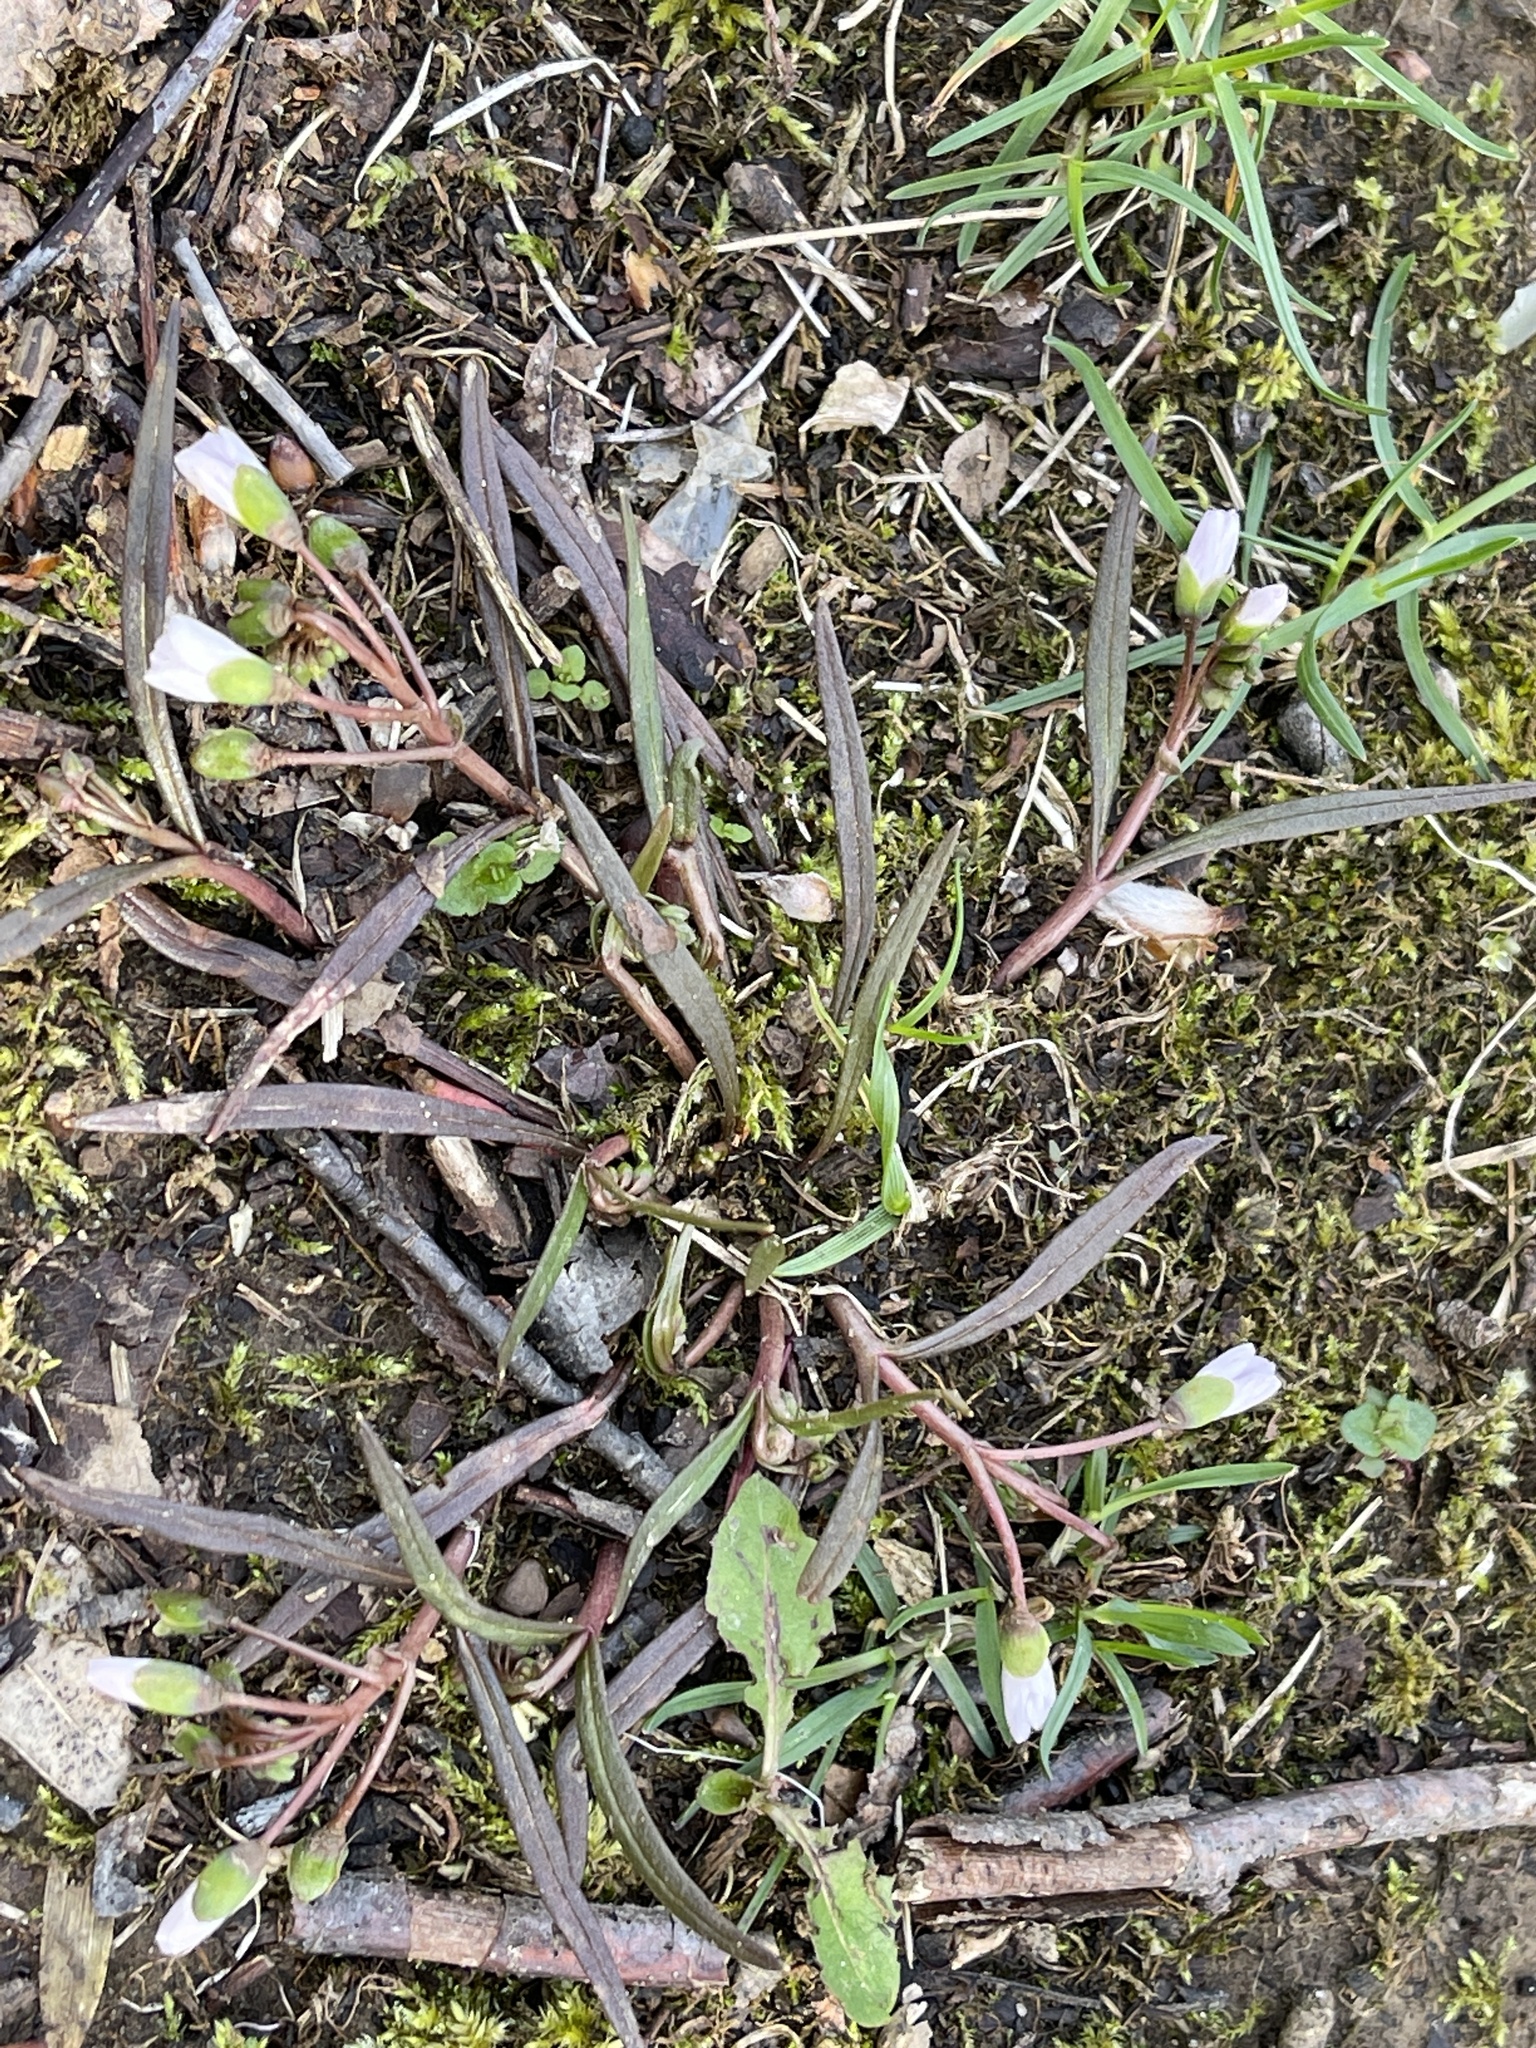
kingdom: Plantae
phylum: Tracheophyta
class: Magnoliopsida
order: Caryophyllales
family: Montiaceae
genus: Claytonia
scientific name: Claytonia virginica
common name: Virginia springbeauty
